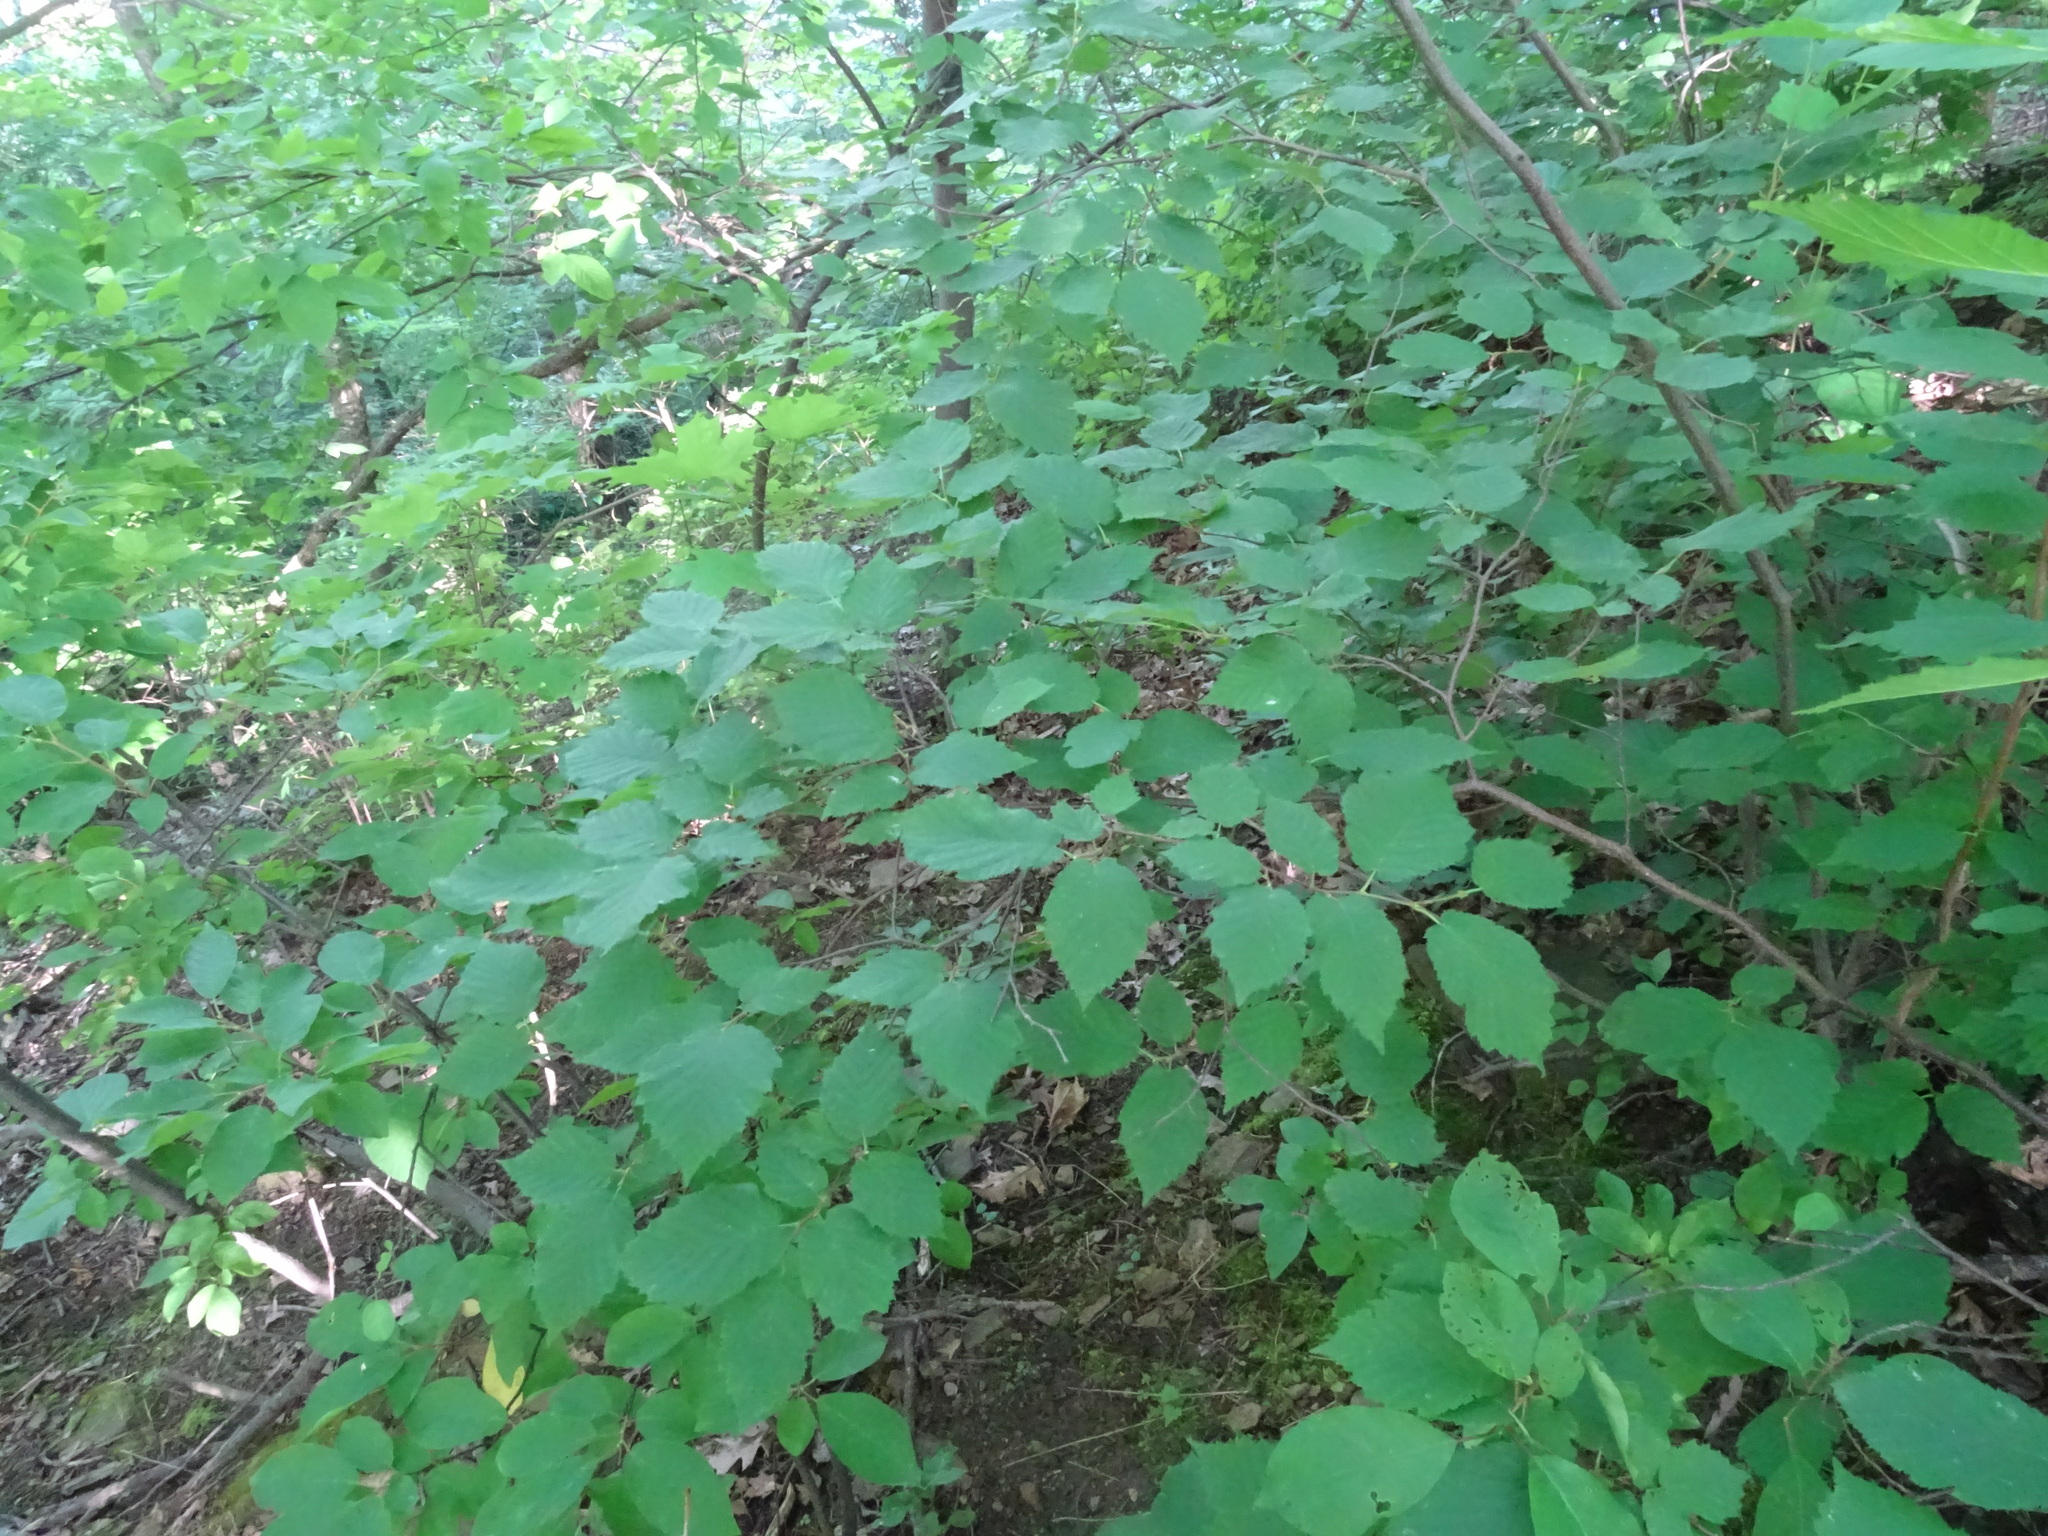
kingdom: Plantae
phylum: Tracheophyta
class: Magnoliopsida
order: Fagales
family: Betulaceae
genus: Corylus
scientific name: Corylus cornuta
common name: Beaked hazel
